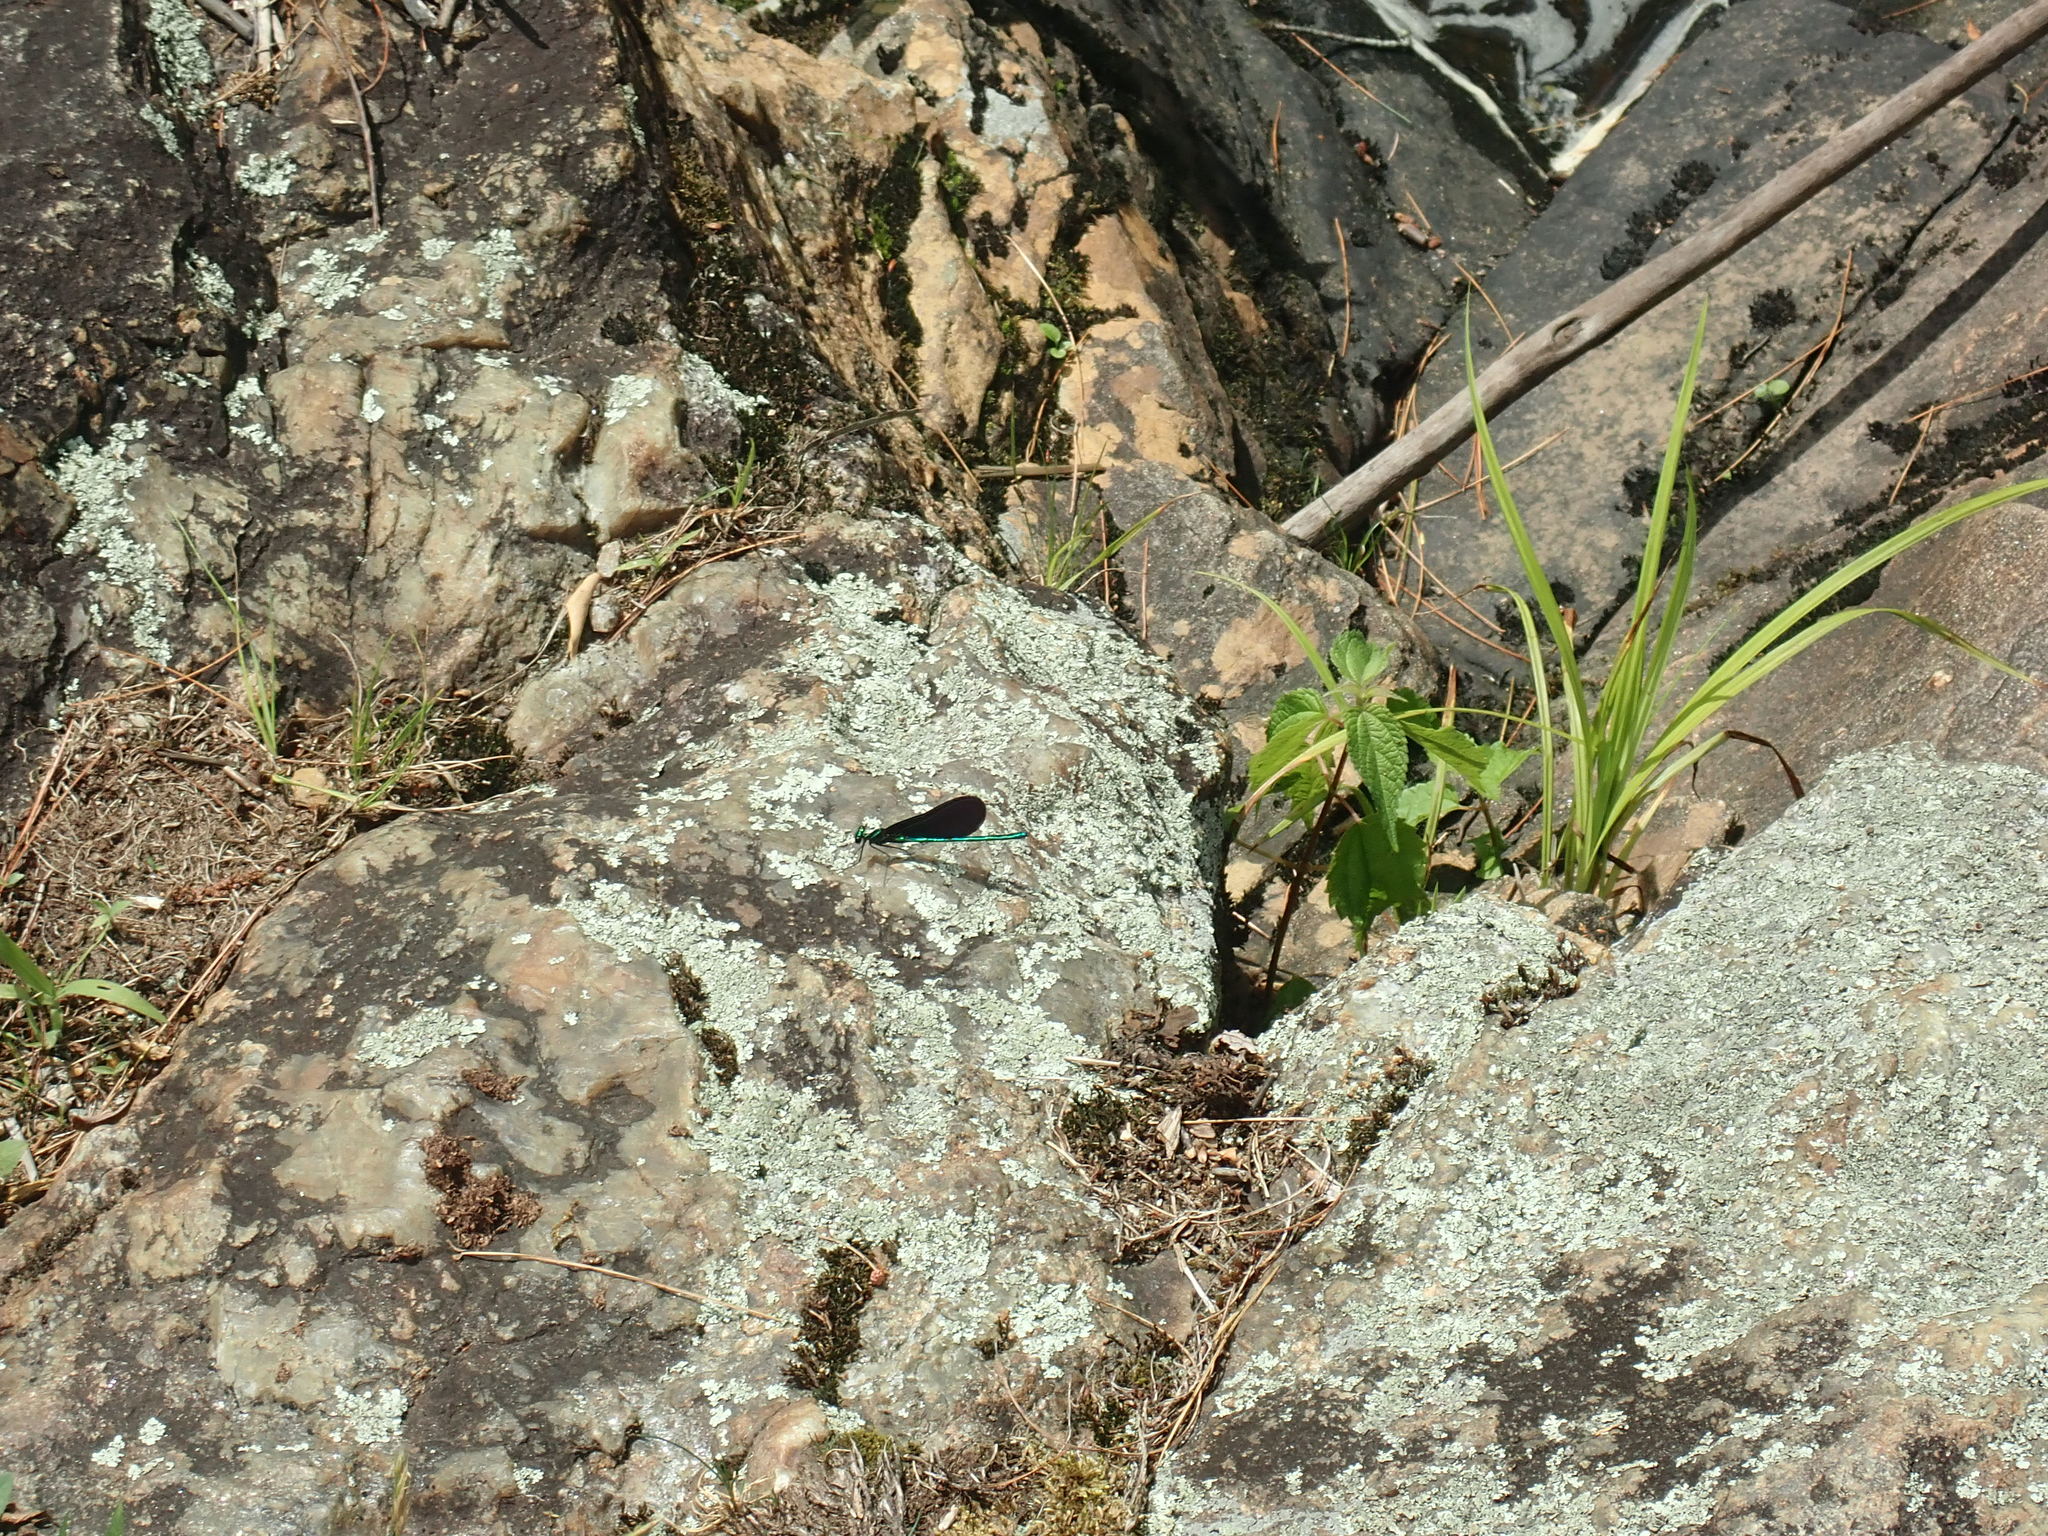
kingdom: Animalia
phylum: Arthropoda
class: Insecta
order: Odonata
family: Calopterygidae
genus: Calopteryx
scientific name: Calopteryx maculata
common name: Ebony jewelwing
